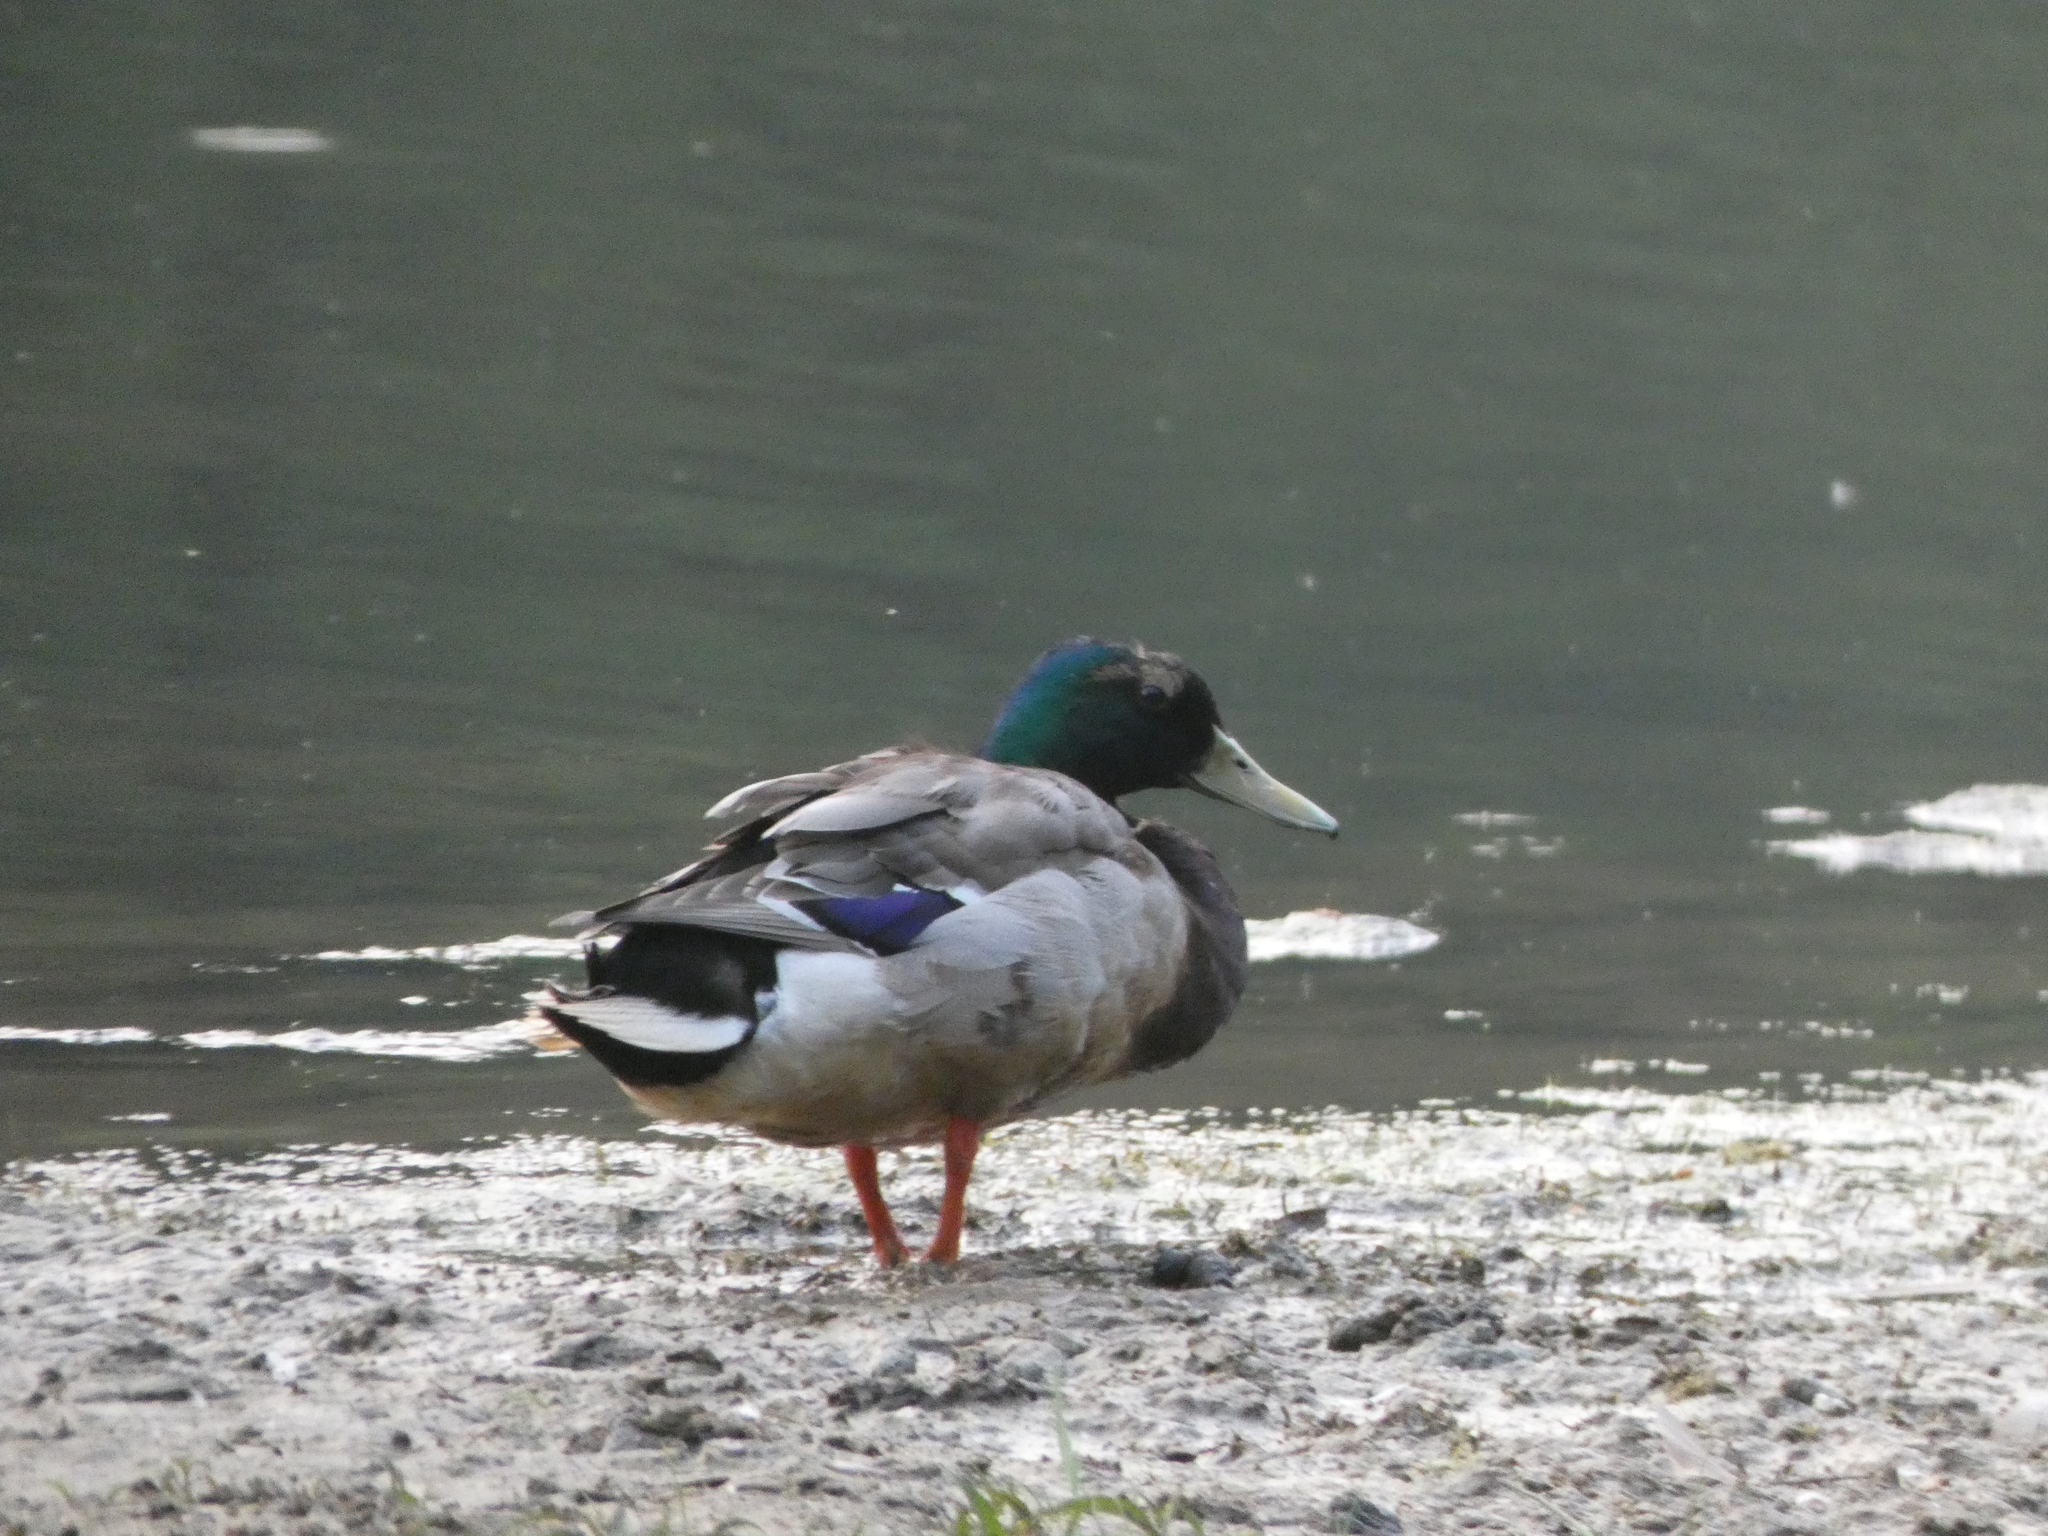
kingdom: Animalia
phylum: Chordata
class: Aves
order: Anseriformes
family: Anatidae
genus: Anas
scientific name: Anas platyrhynchos
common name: Mallard
